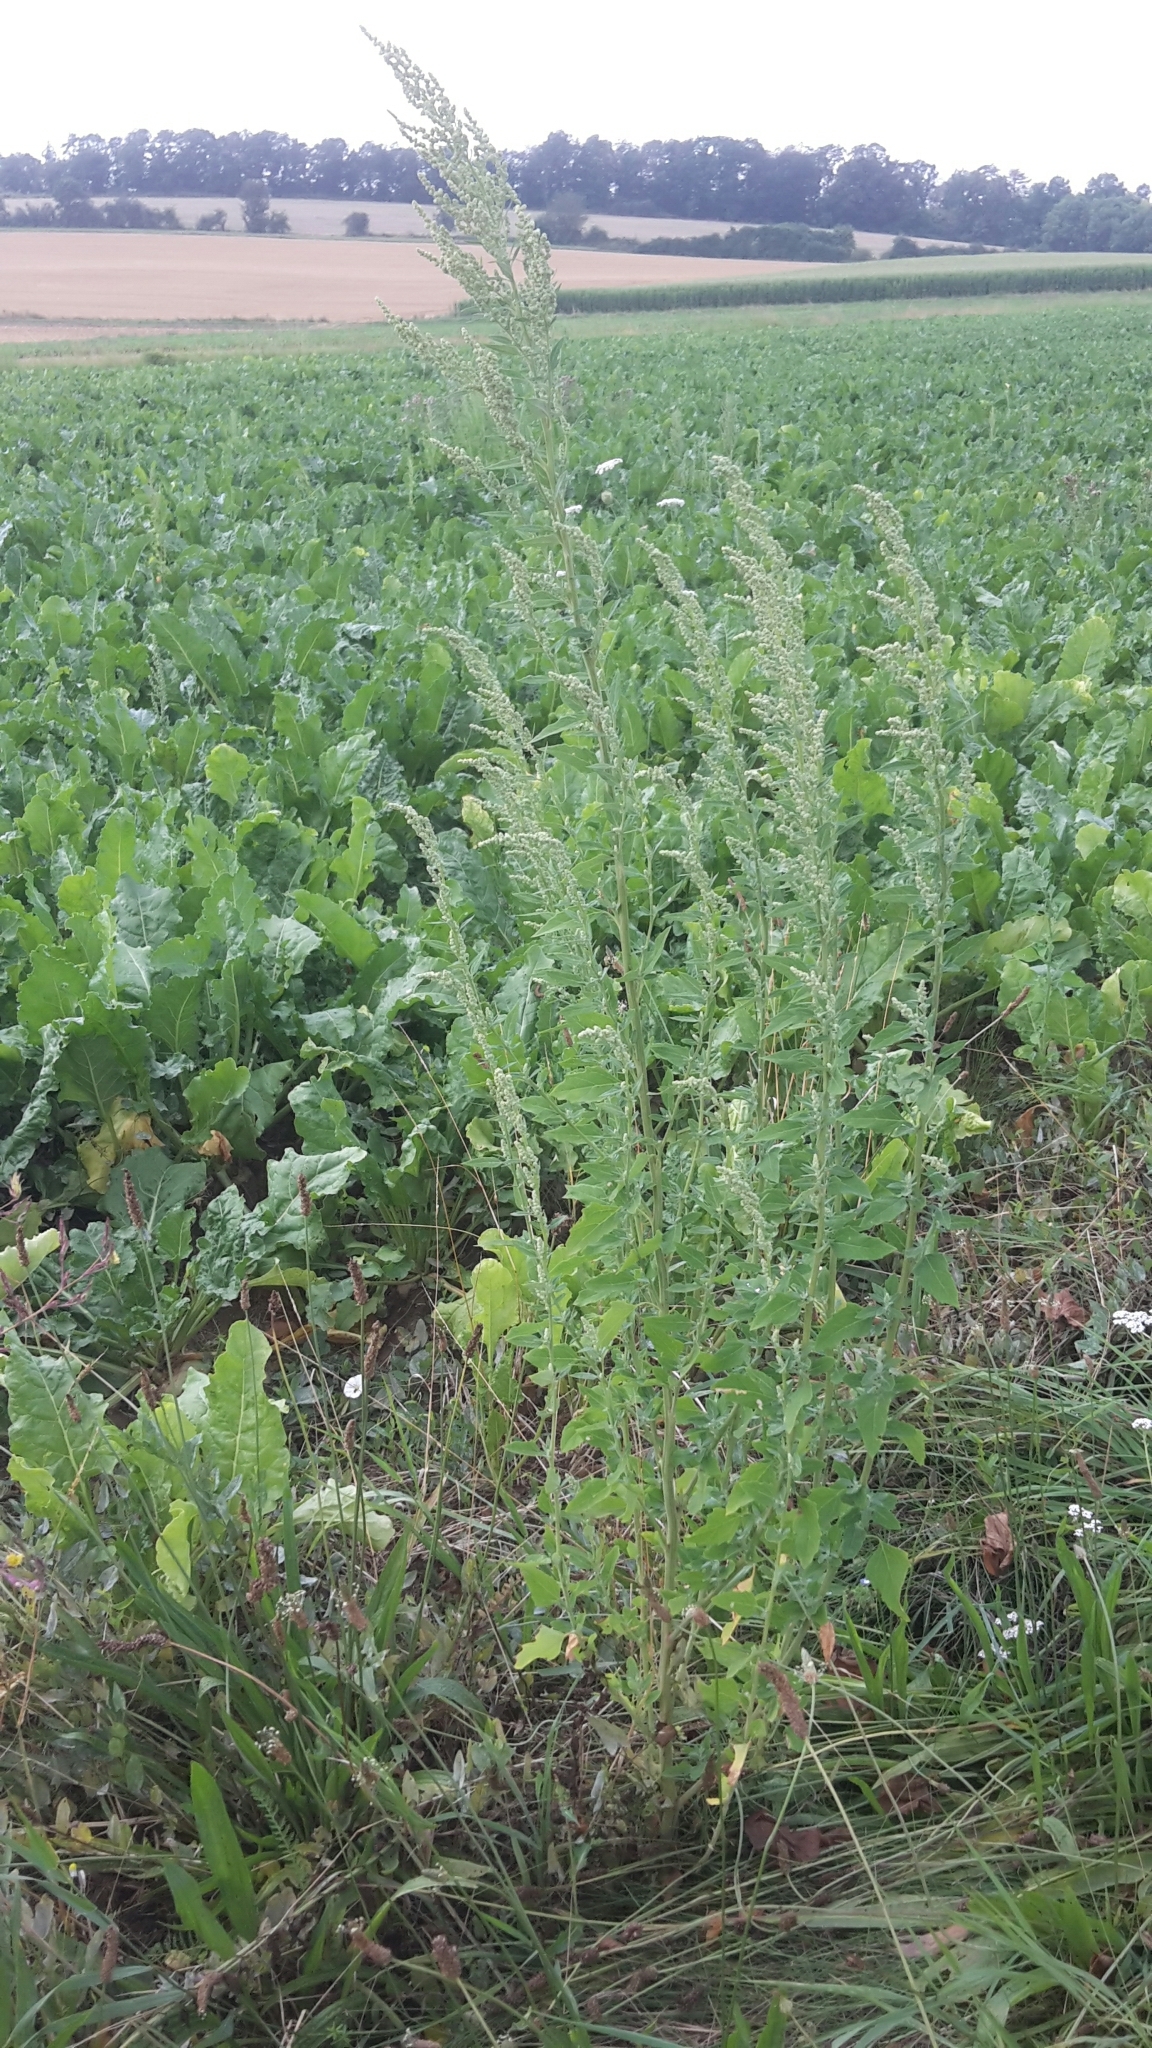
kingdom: Plantae
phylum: Tracheophyta
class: Magnoliopsida
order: Caryophyllales
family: Amaranthaceae
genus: Chenopodium
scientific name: Chenopodium album
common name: Fat-hen
